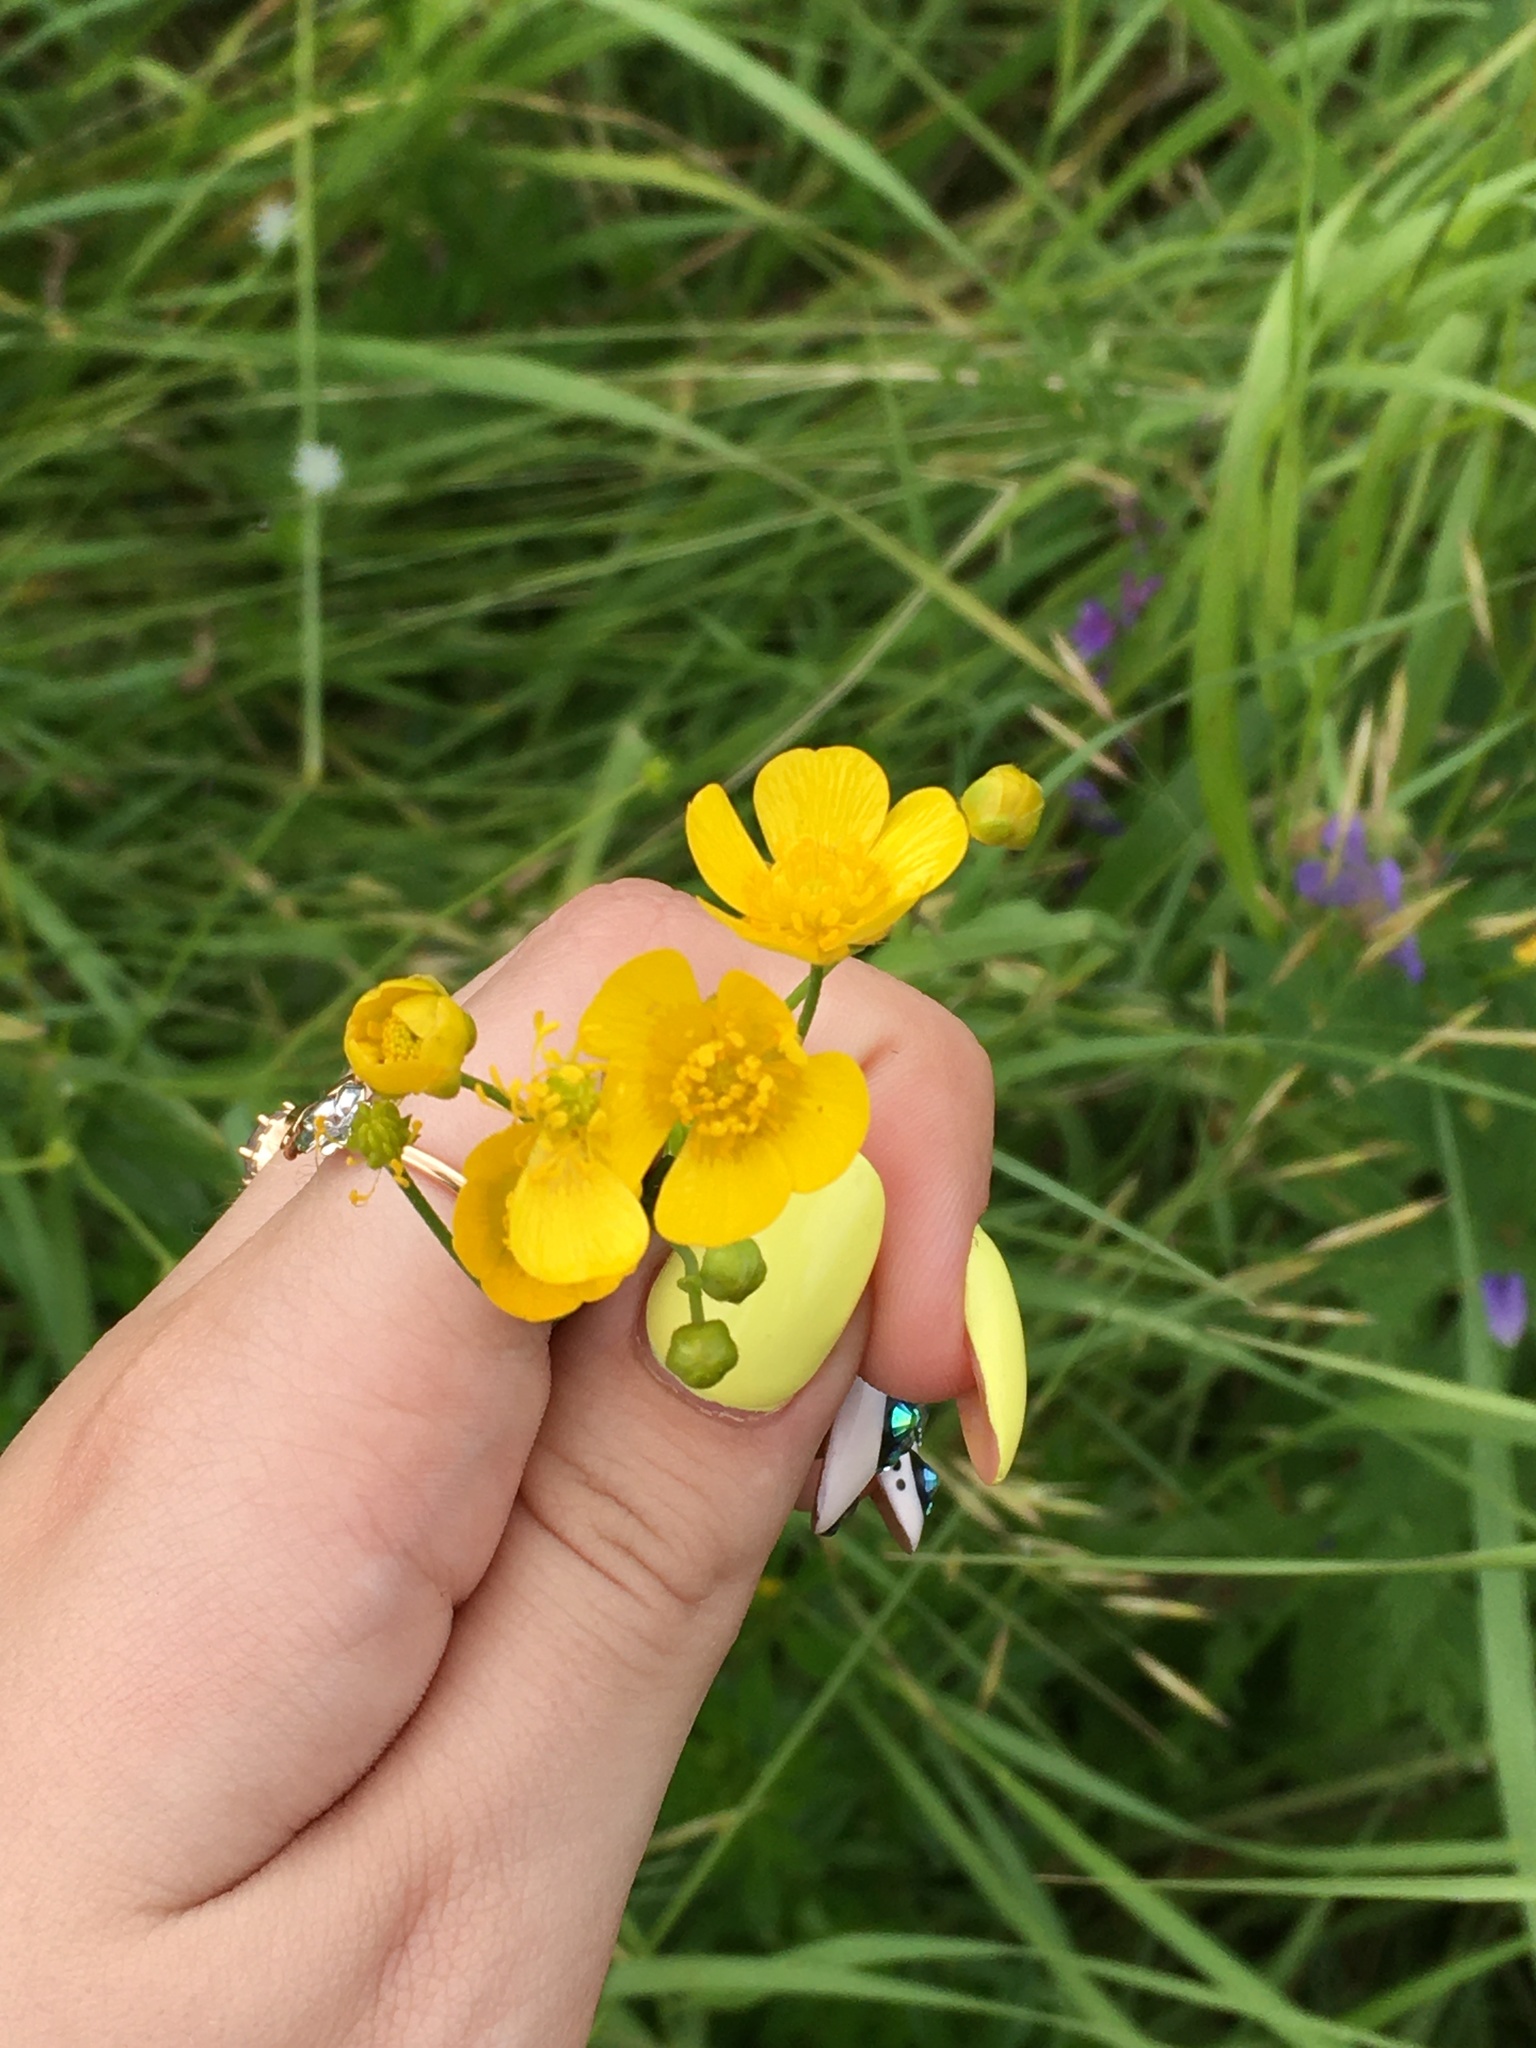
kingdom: Plantae
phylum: Tracheophyta
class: Magnoliopsida
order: Ranunculales
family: Ranunculaceae
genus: Ranunculus
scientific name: Ranunculus acris
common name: Meadow buttercup
